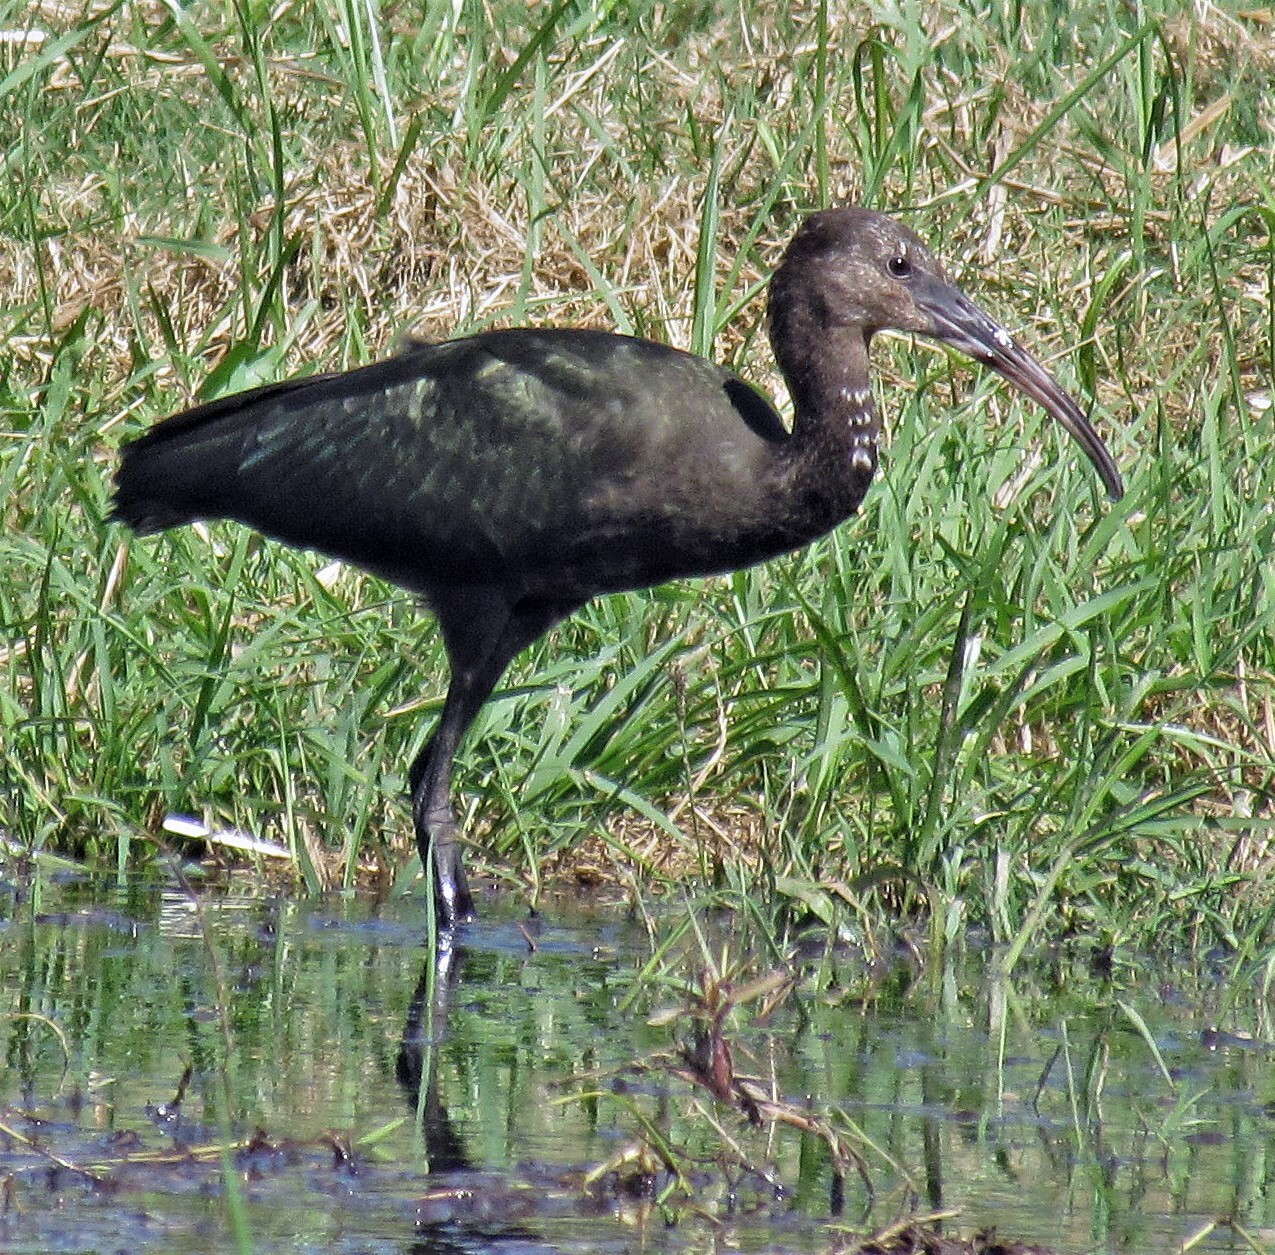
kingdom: Animalia
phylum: Chordata
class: Aves
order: Pelecaniformes
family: Threskiornithidae
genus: Phimosus
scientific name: Phimosus infuscatus
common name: Bare-faced ibis
